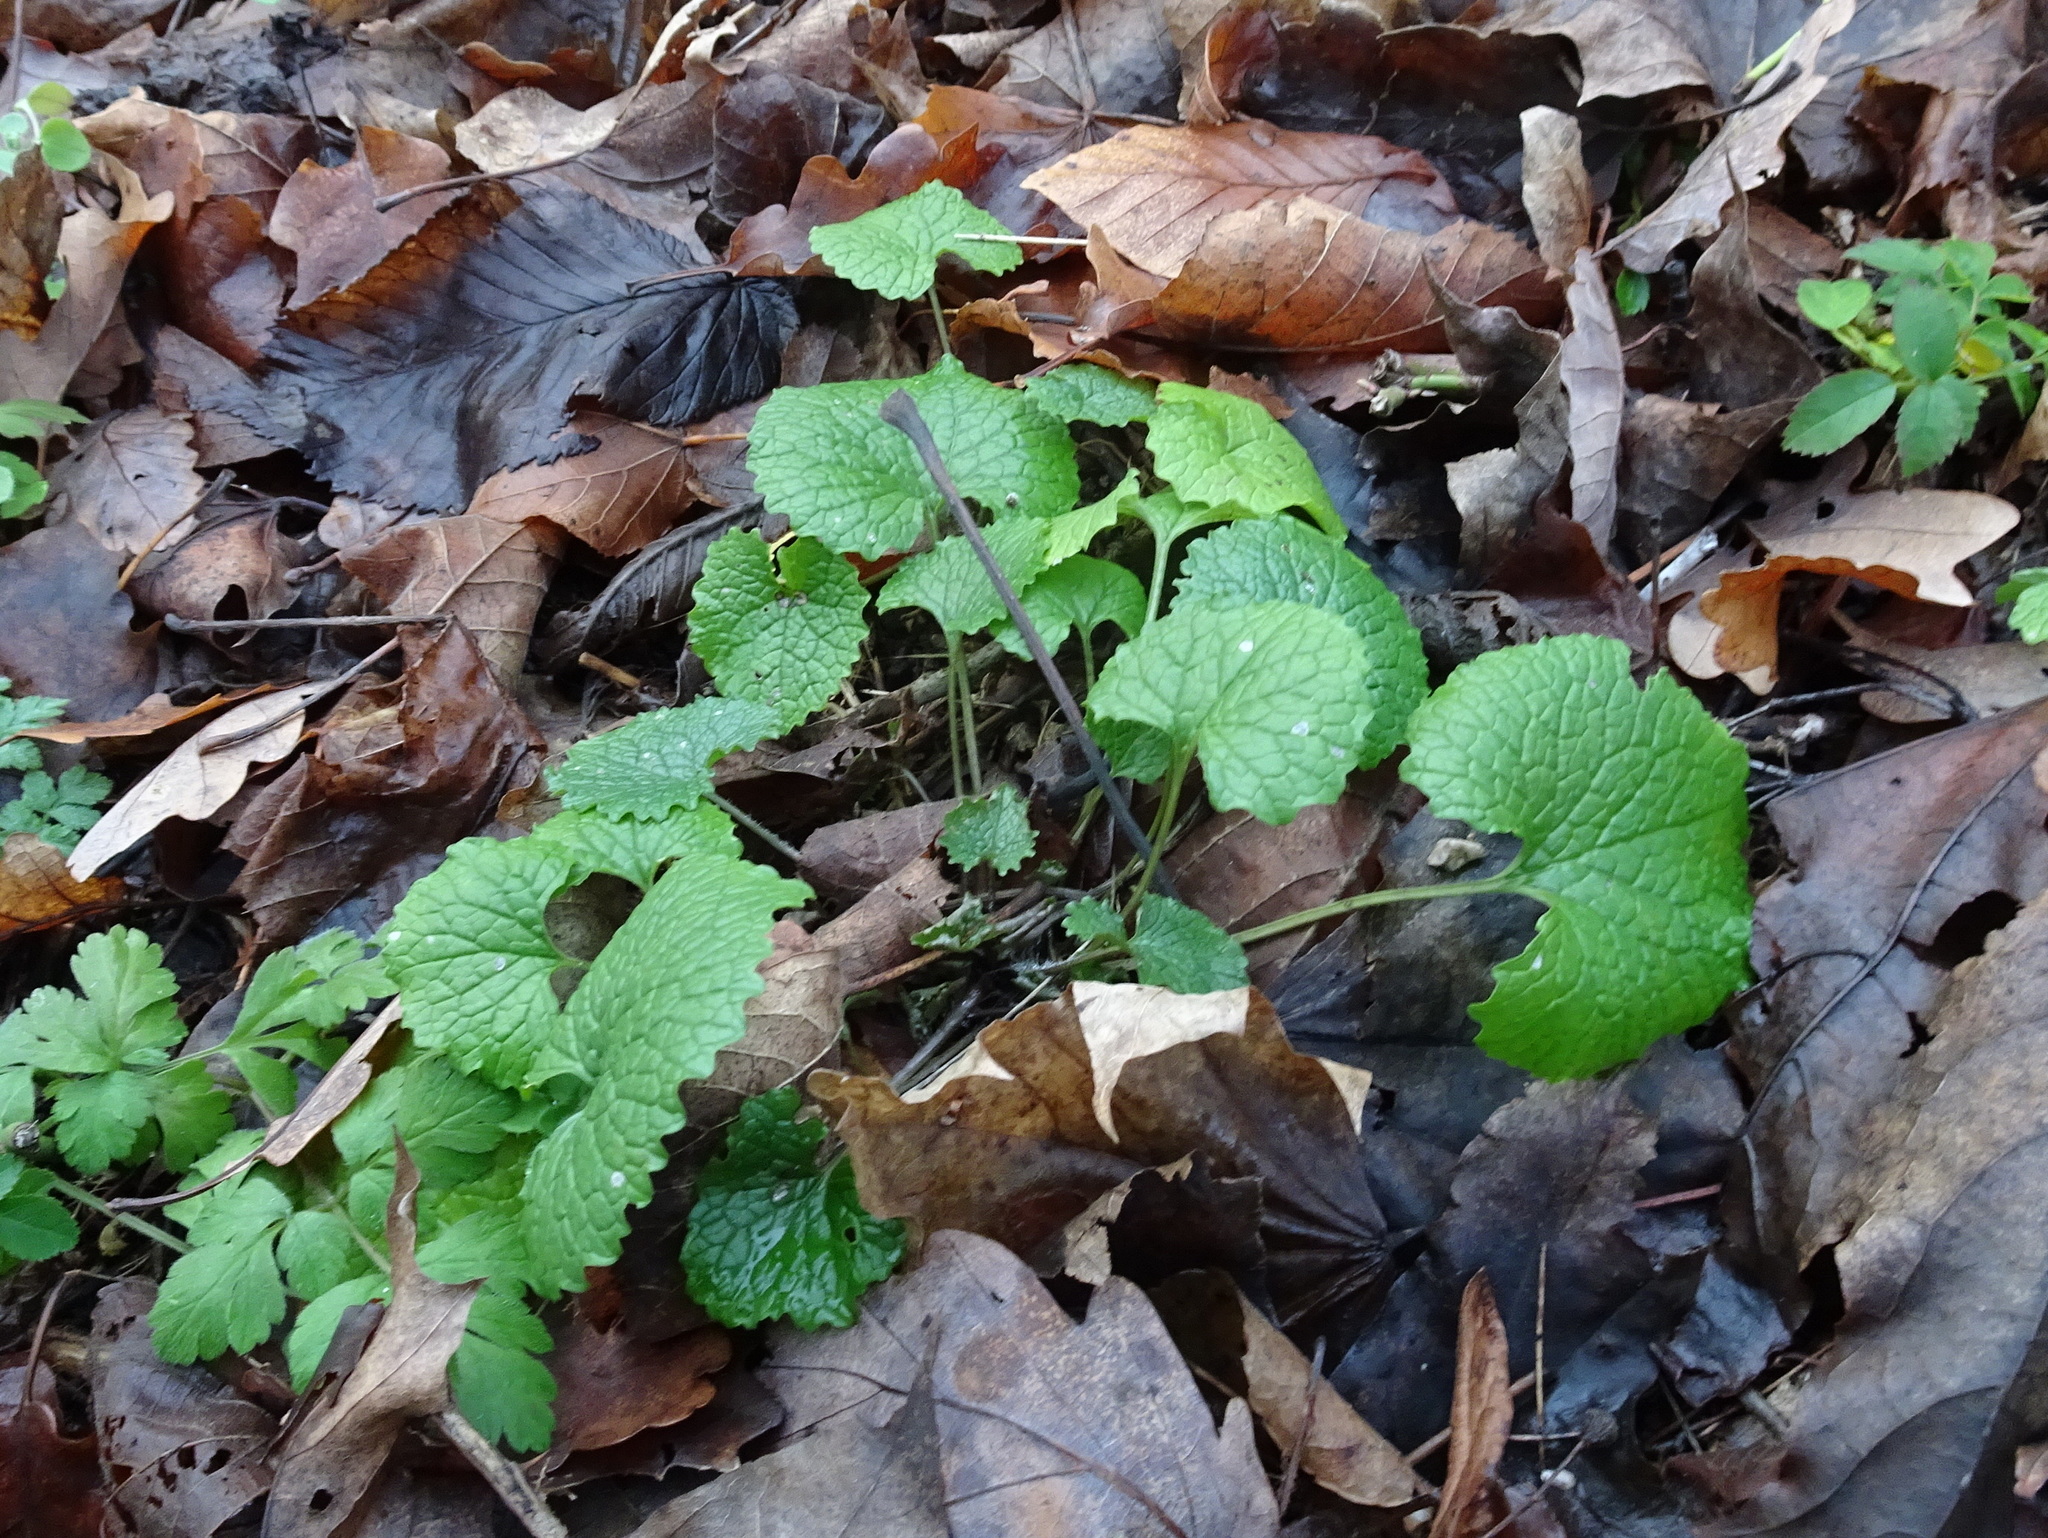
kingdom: Plantae
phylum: Tracheophyta
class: Magnoliopsida
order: Brassicales
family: Brassicaceae
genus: Alliaria
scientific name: Alliaria petiolata
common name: Garlic mustard
